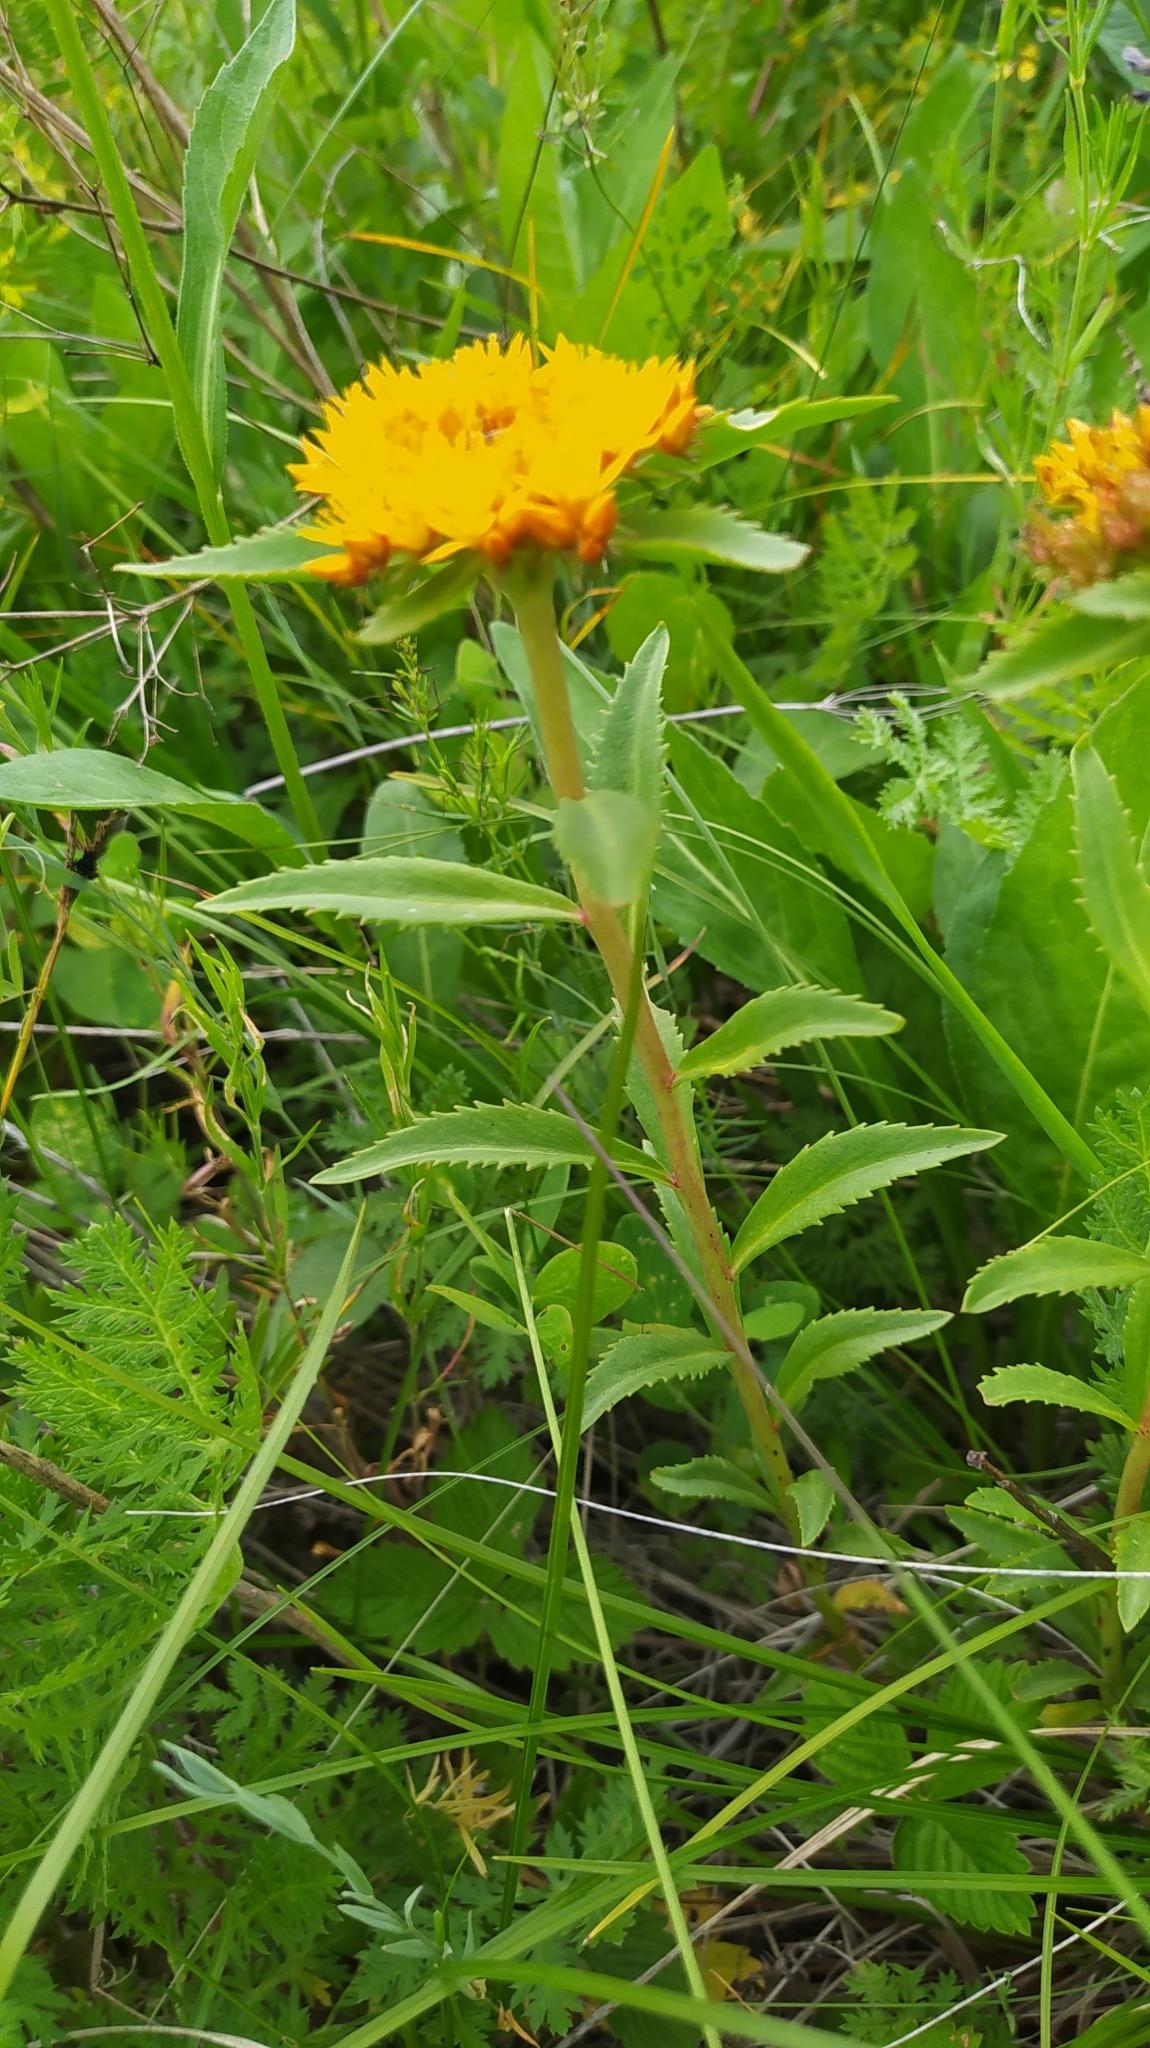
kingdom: Plantae
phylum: Tracheophyta
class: Magnoliopsida
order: Saxifragales
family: Crassulaceae
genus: Phedimus
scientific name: Phedimus aizoon
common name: Orpin aizoon
